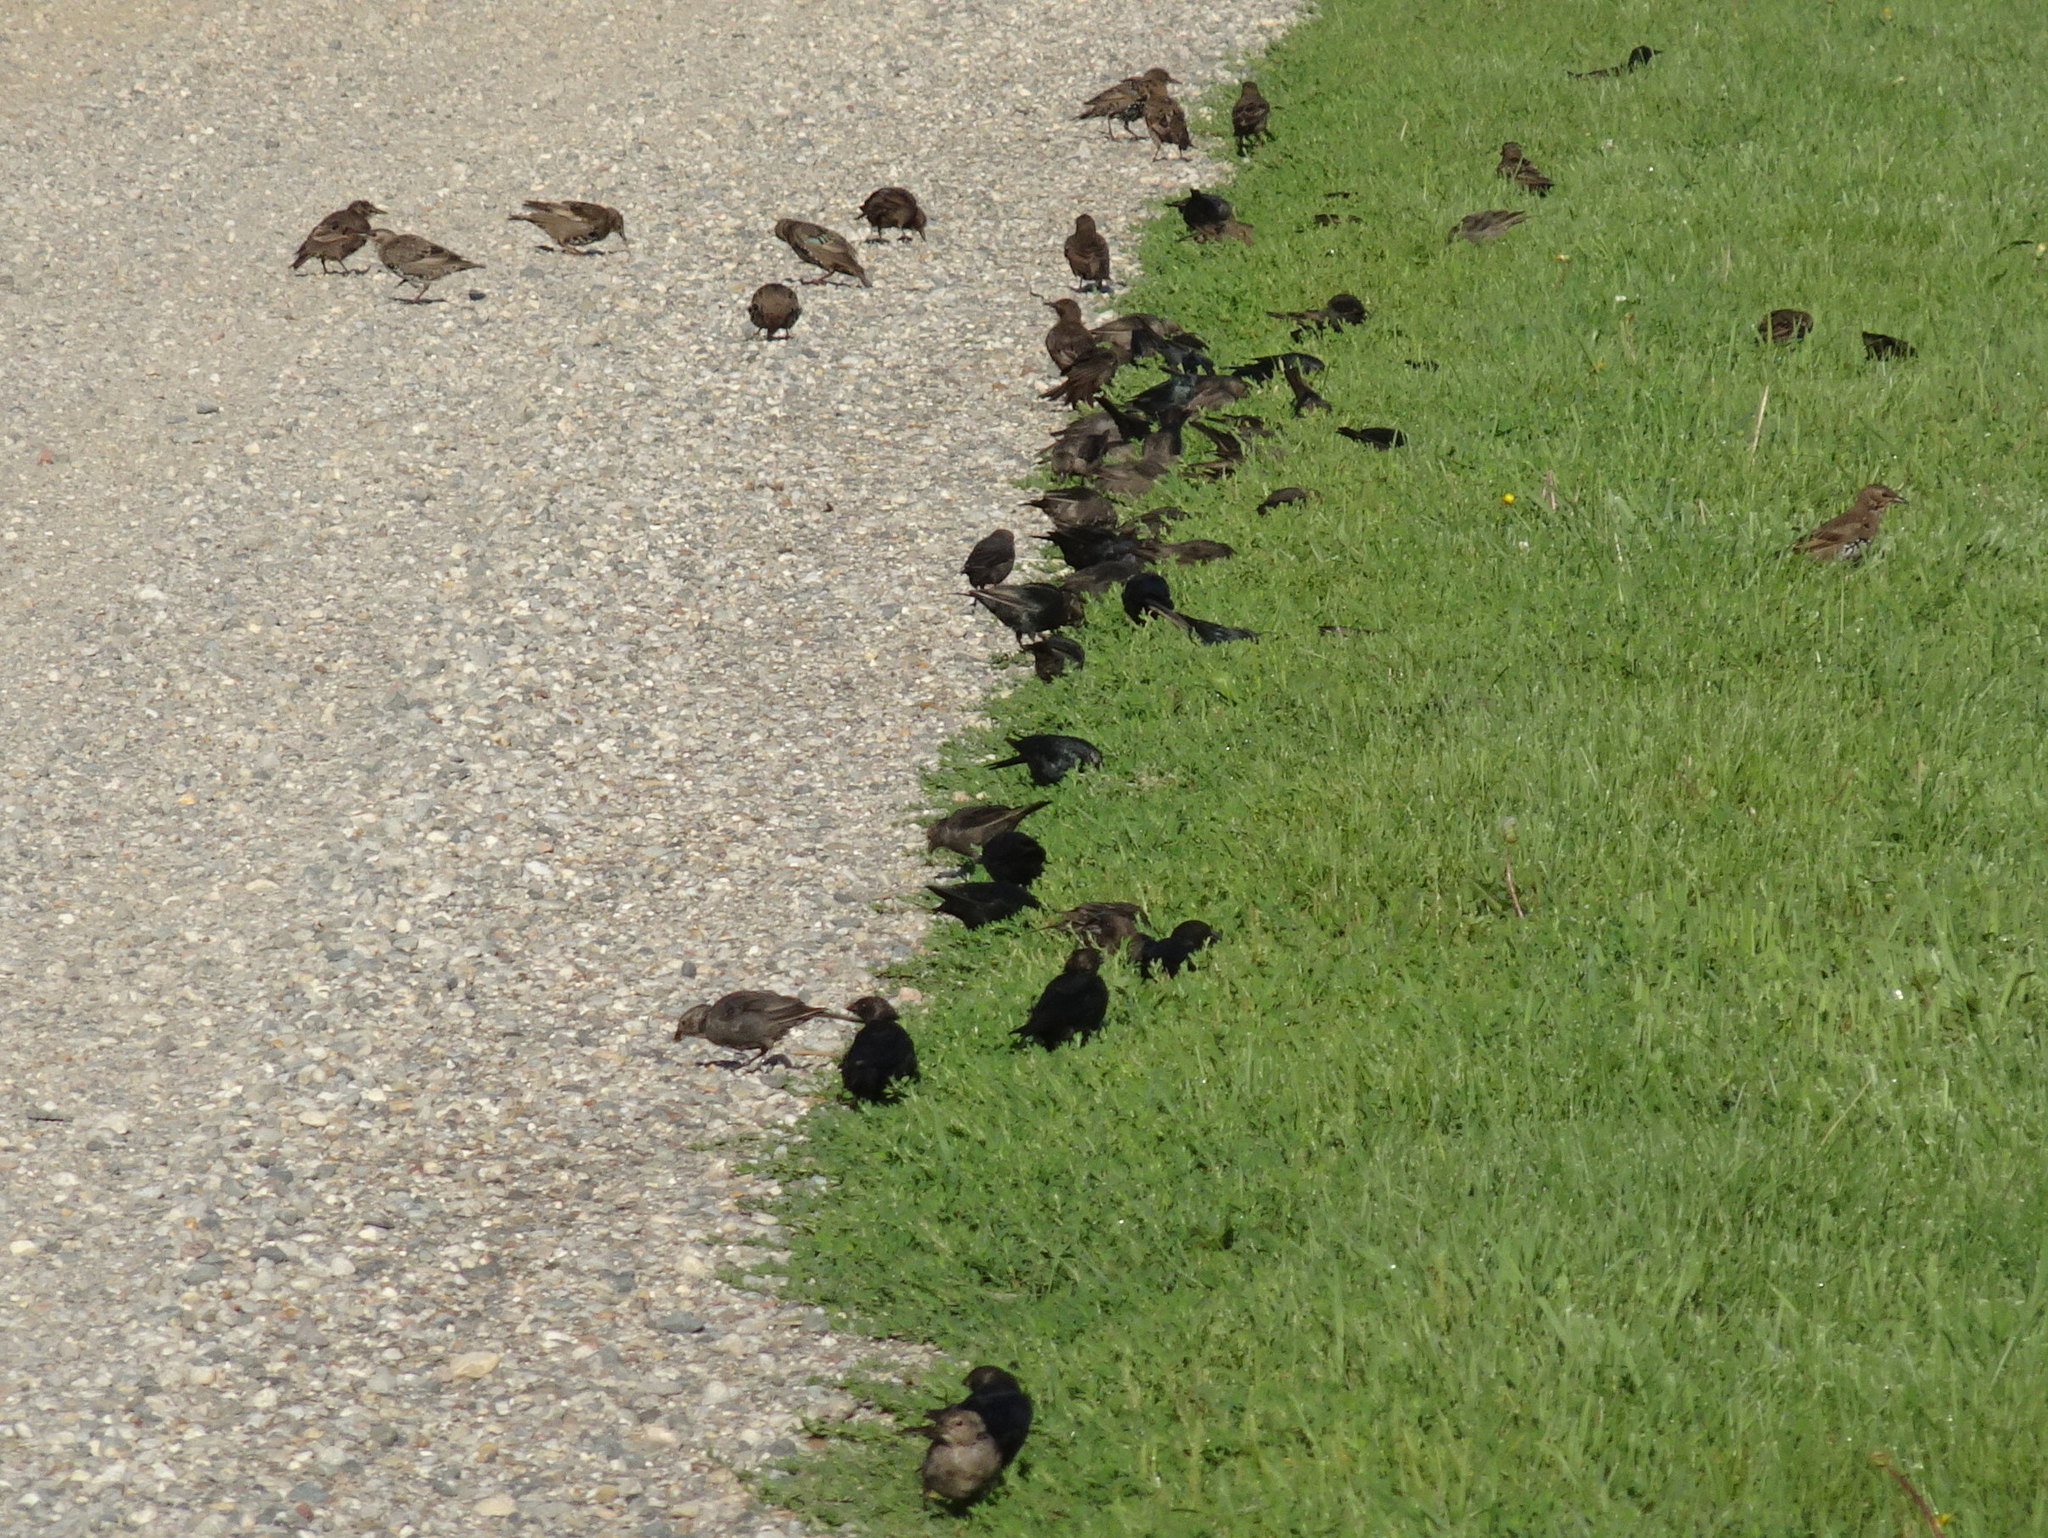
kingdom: Animalia
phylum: Chordata
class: Aves
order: Passeriformes
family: Icteridae
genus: Molothrus
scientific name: Molothrus ater
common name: Brown-headed cowbird
